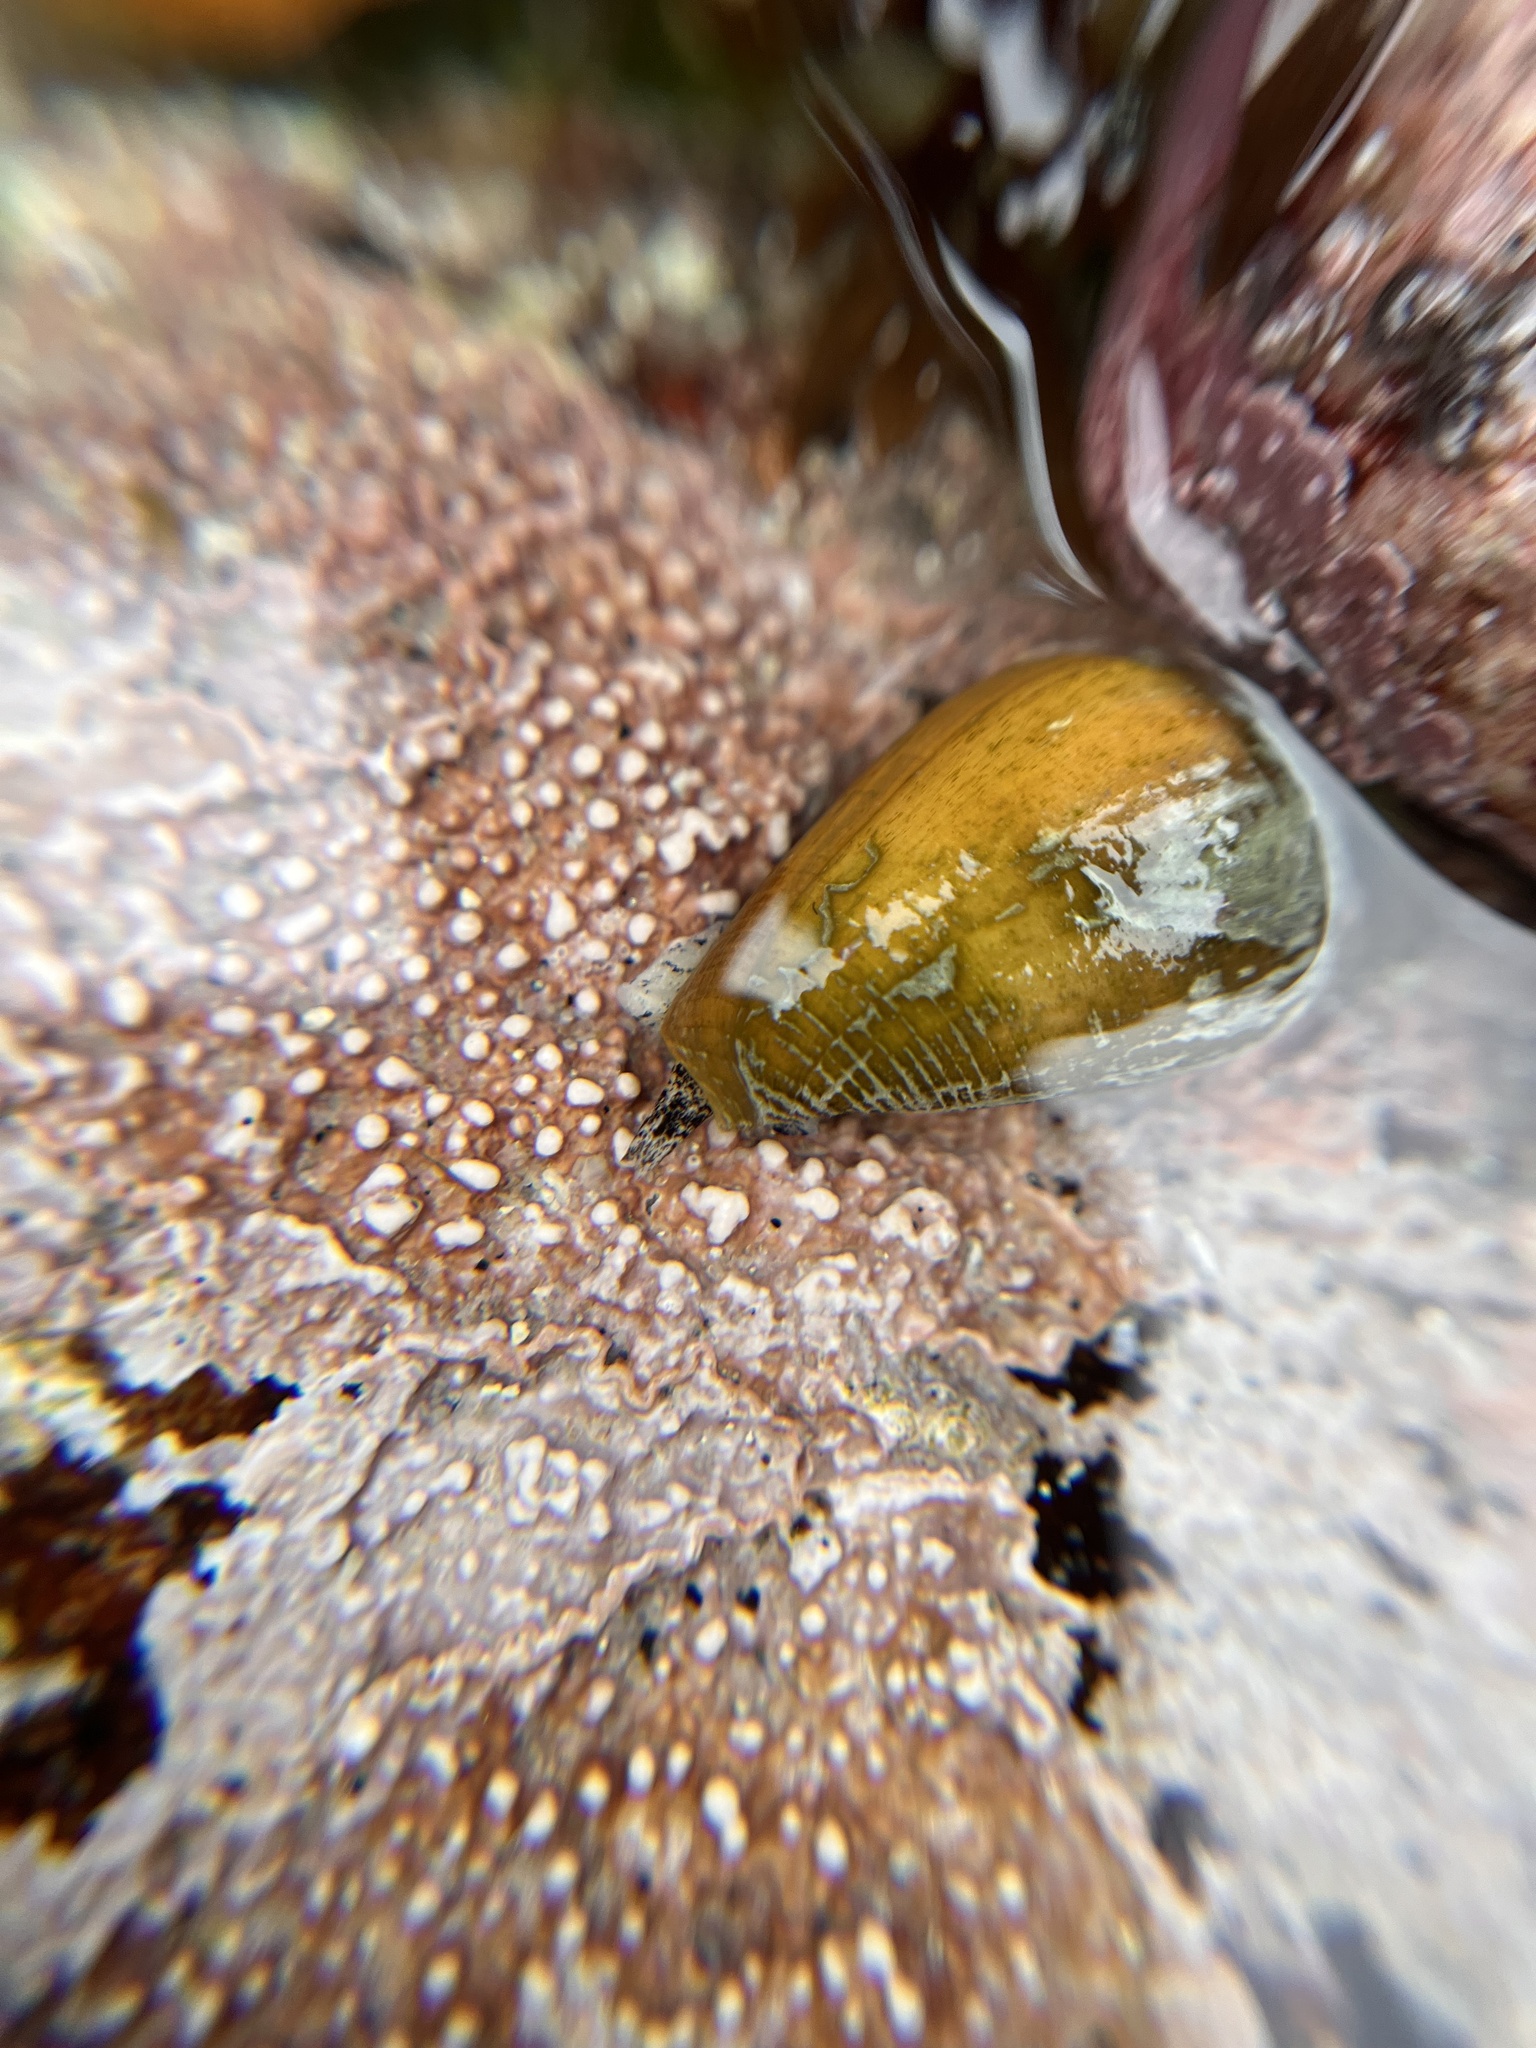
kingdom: Animalia
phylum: Mollusca
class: Gastropoda
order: Neogastropoda
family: Conidae
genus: Californiconus
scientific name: Californiconus californicus
